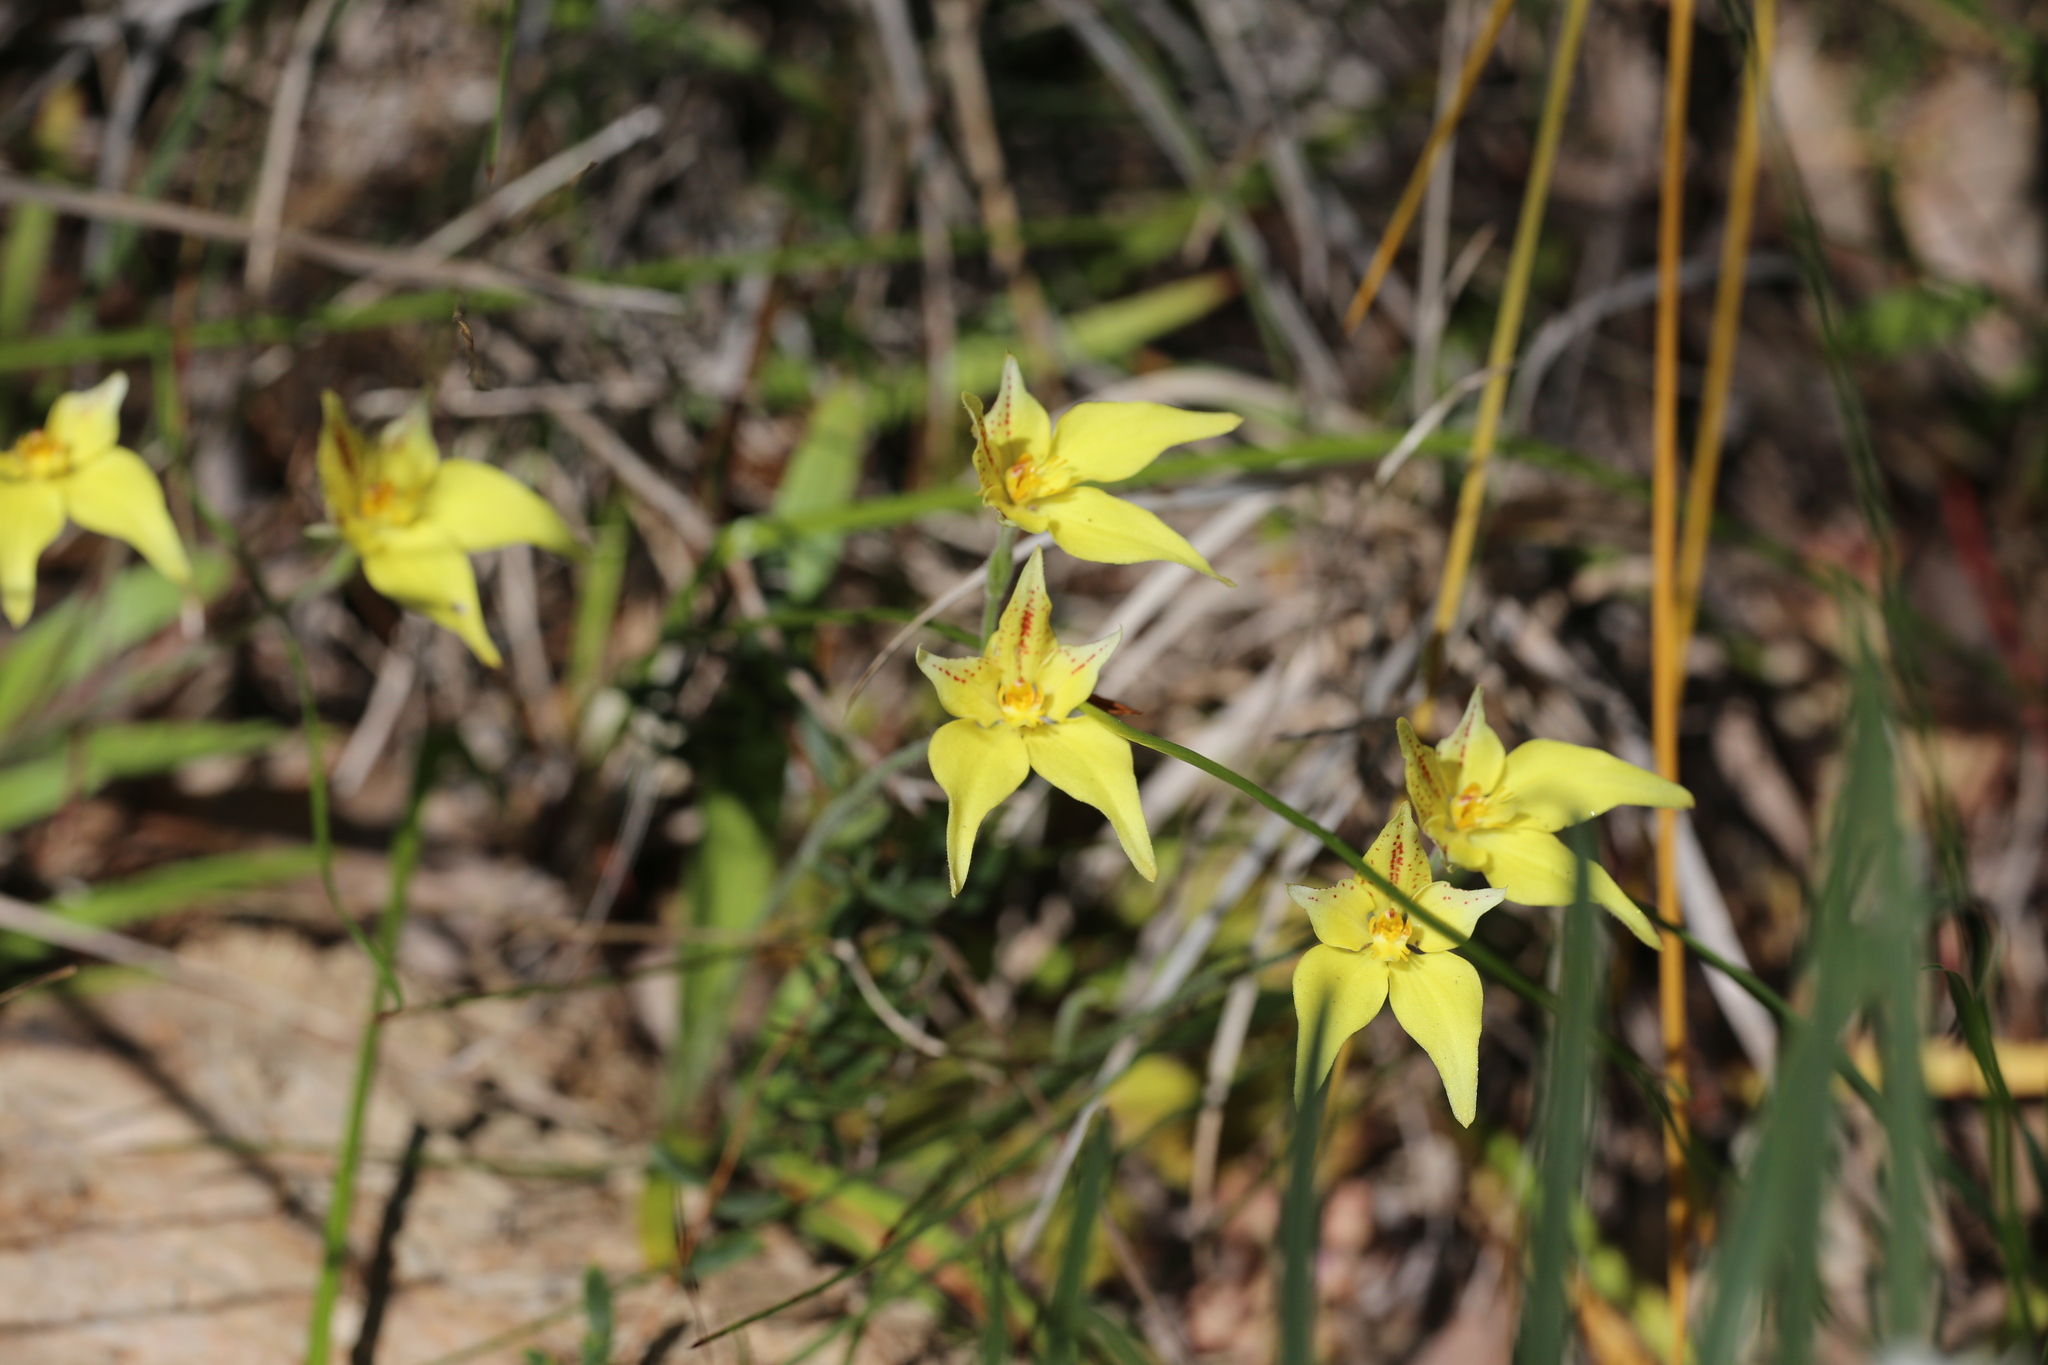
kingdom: Plantae
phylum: Tracheophyta
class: Liliopsida
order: Asparagales
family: Orchidaceae
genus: Caladenia
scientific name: Caladenia flava
